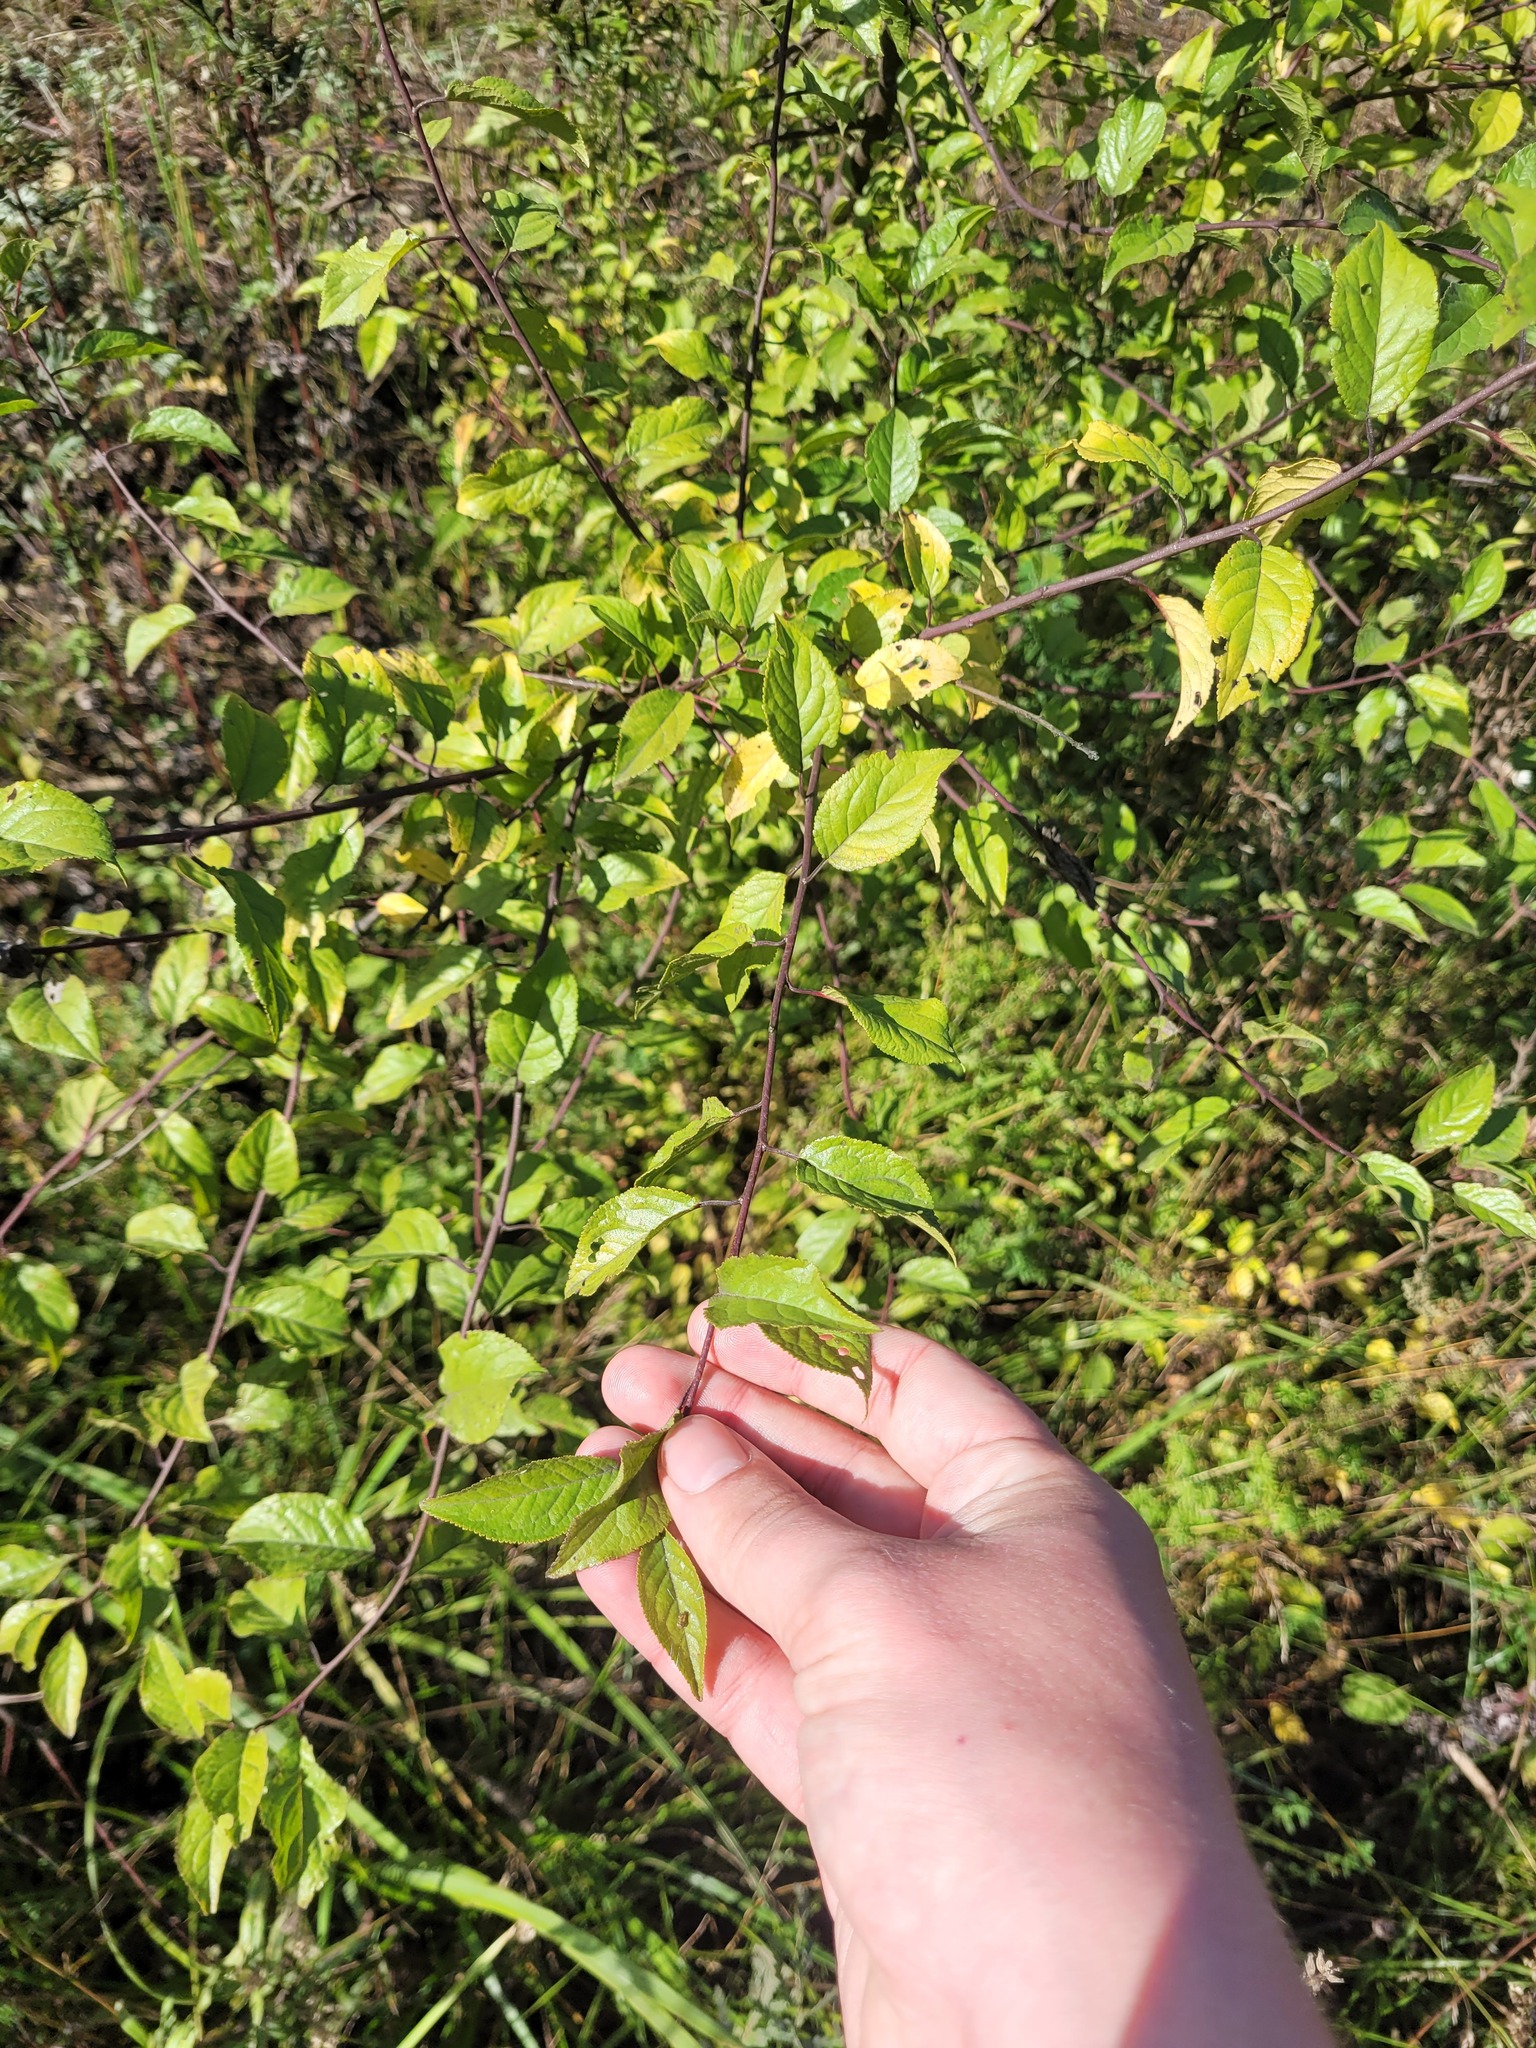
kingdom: Plantae
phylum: Tracheophyta
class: Magnoliopsida
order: Rosales
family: Rosaceae
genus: Prunus
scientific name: Prunus cerasifera
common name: Cherry plum
